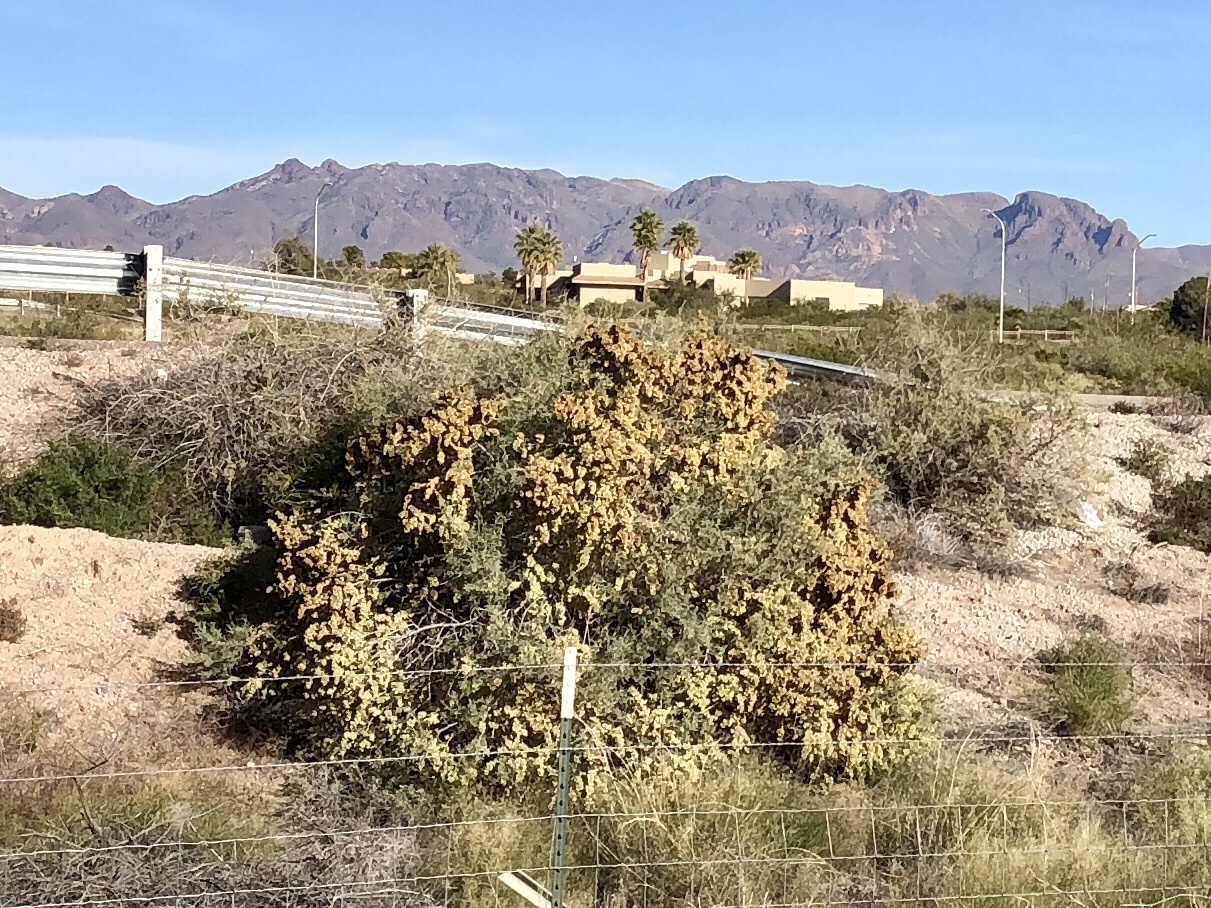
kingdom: Plantae
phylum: Tracheophyta
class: Magnoliopsida
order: Caryophyllales
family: Amaranthaceae
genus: Atriplex
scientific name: Atriplex canescens
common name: Four-wing saltbush
